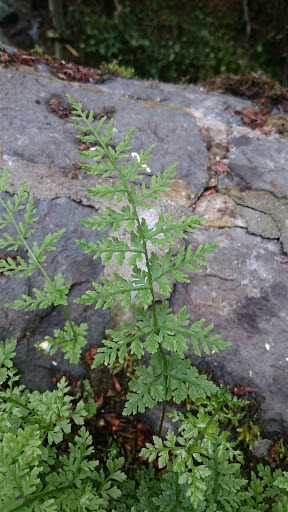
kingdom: Plantae
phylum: Tracheophyta
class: Polypodiopsida
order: Polypodiales
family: Cystopteridaceae
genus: Cystopteris
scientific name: Cystopteris fragilis
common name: Brittle bladder fern
